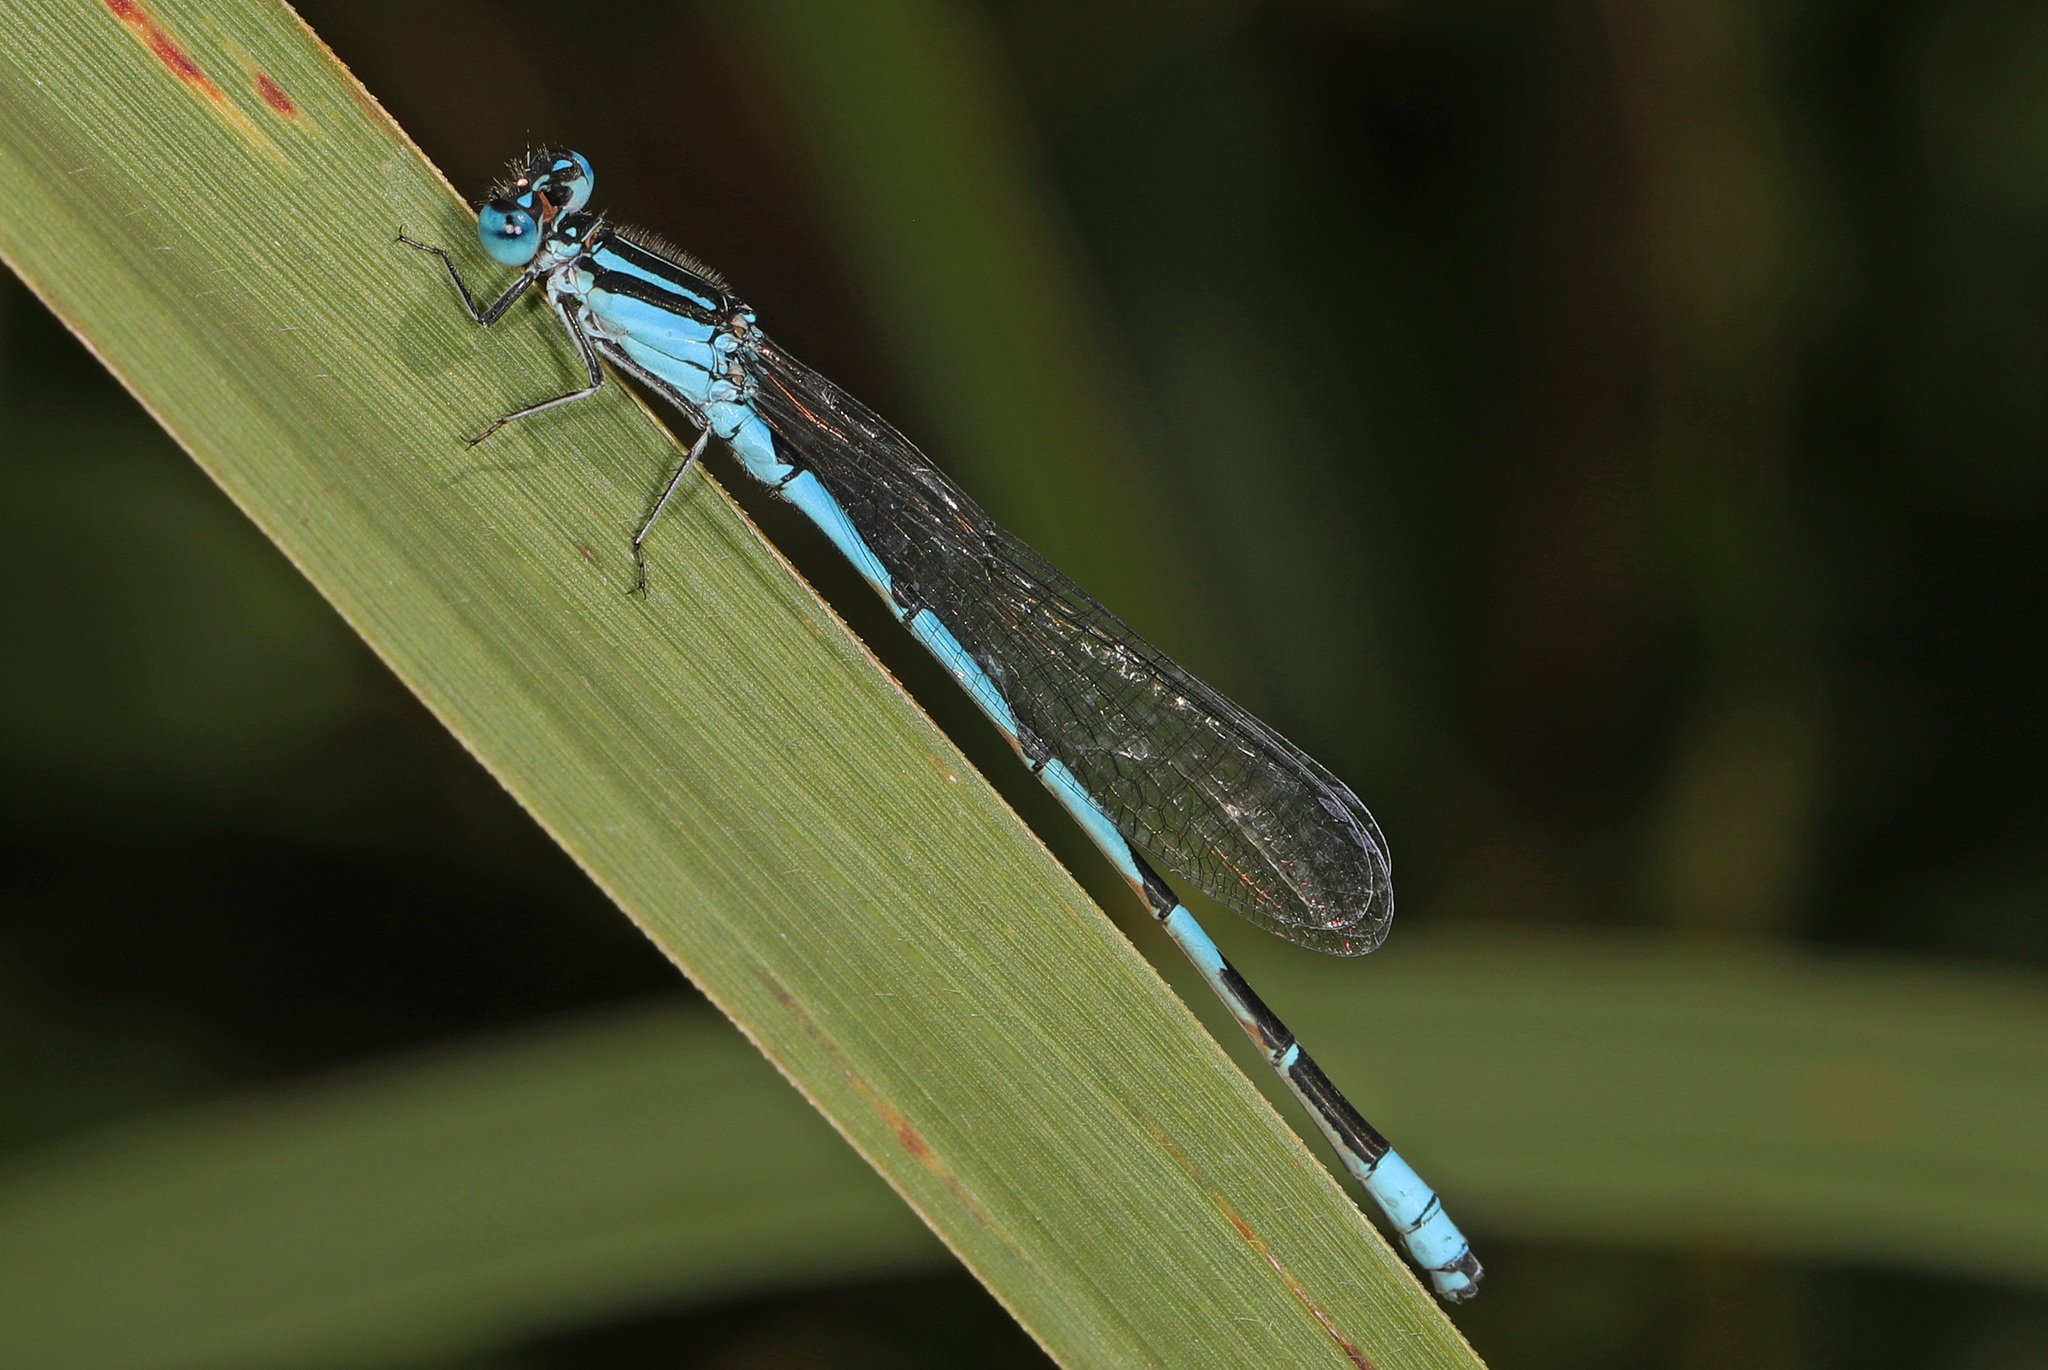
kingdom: Animalia
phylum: Arthropoda
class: Insecta
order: Odonata
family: Coenagrionidae
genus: Enallagma
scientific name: Enallagma durum
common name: Big bluet
